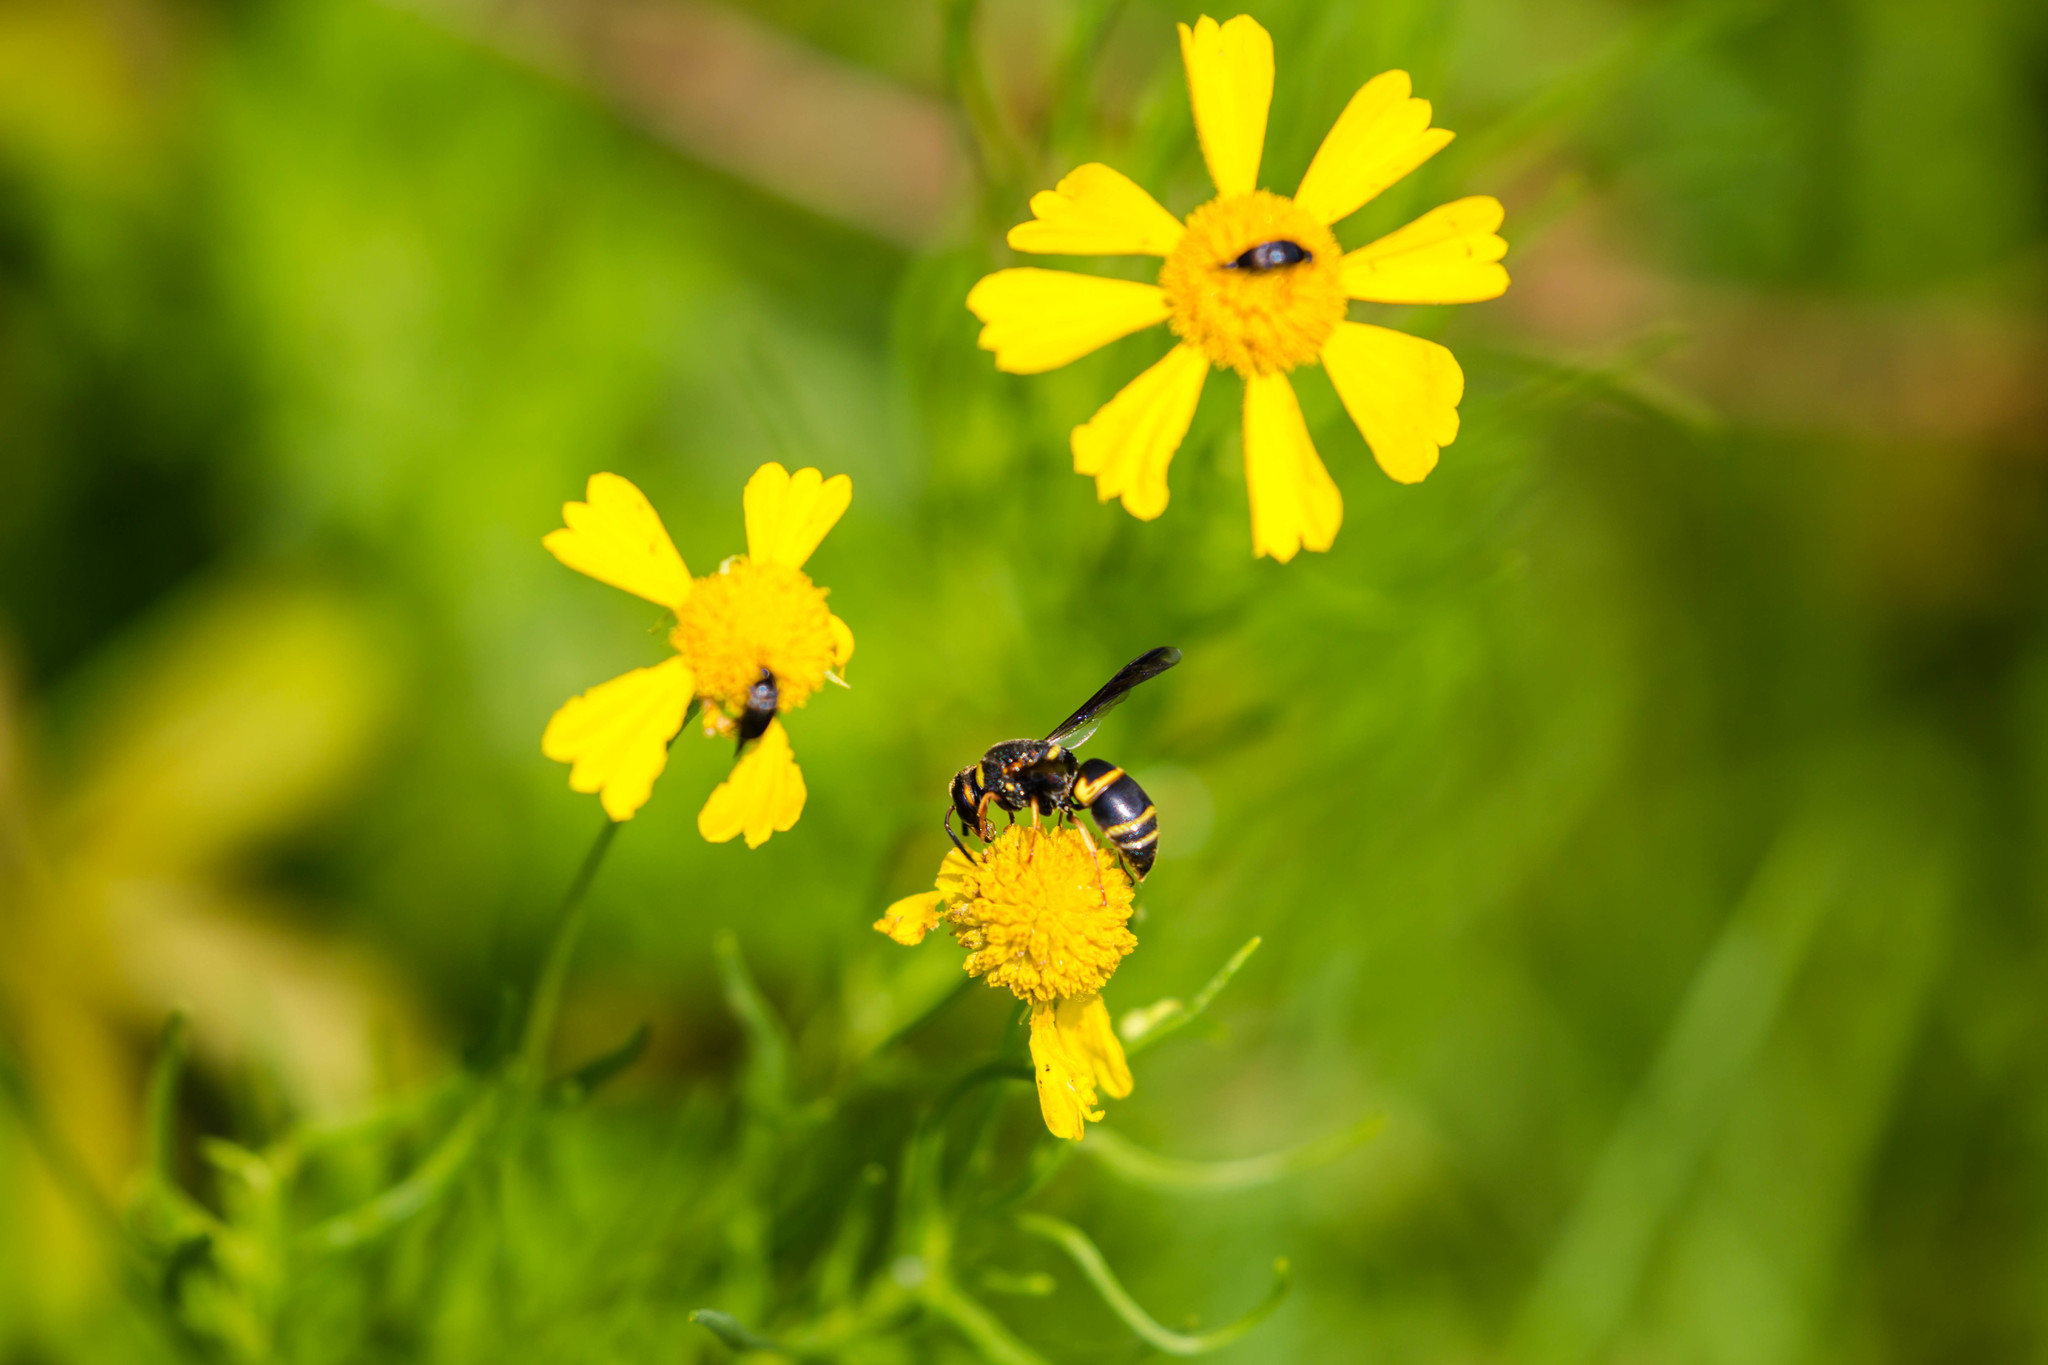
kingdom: Animalia
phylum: Arthropoda
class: Insecta
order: Hymenoptera
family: Eumenidae
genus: Euodynerus
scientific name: Euodynerus hidalgo
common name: Wasp
